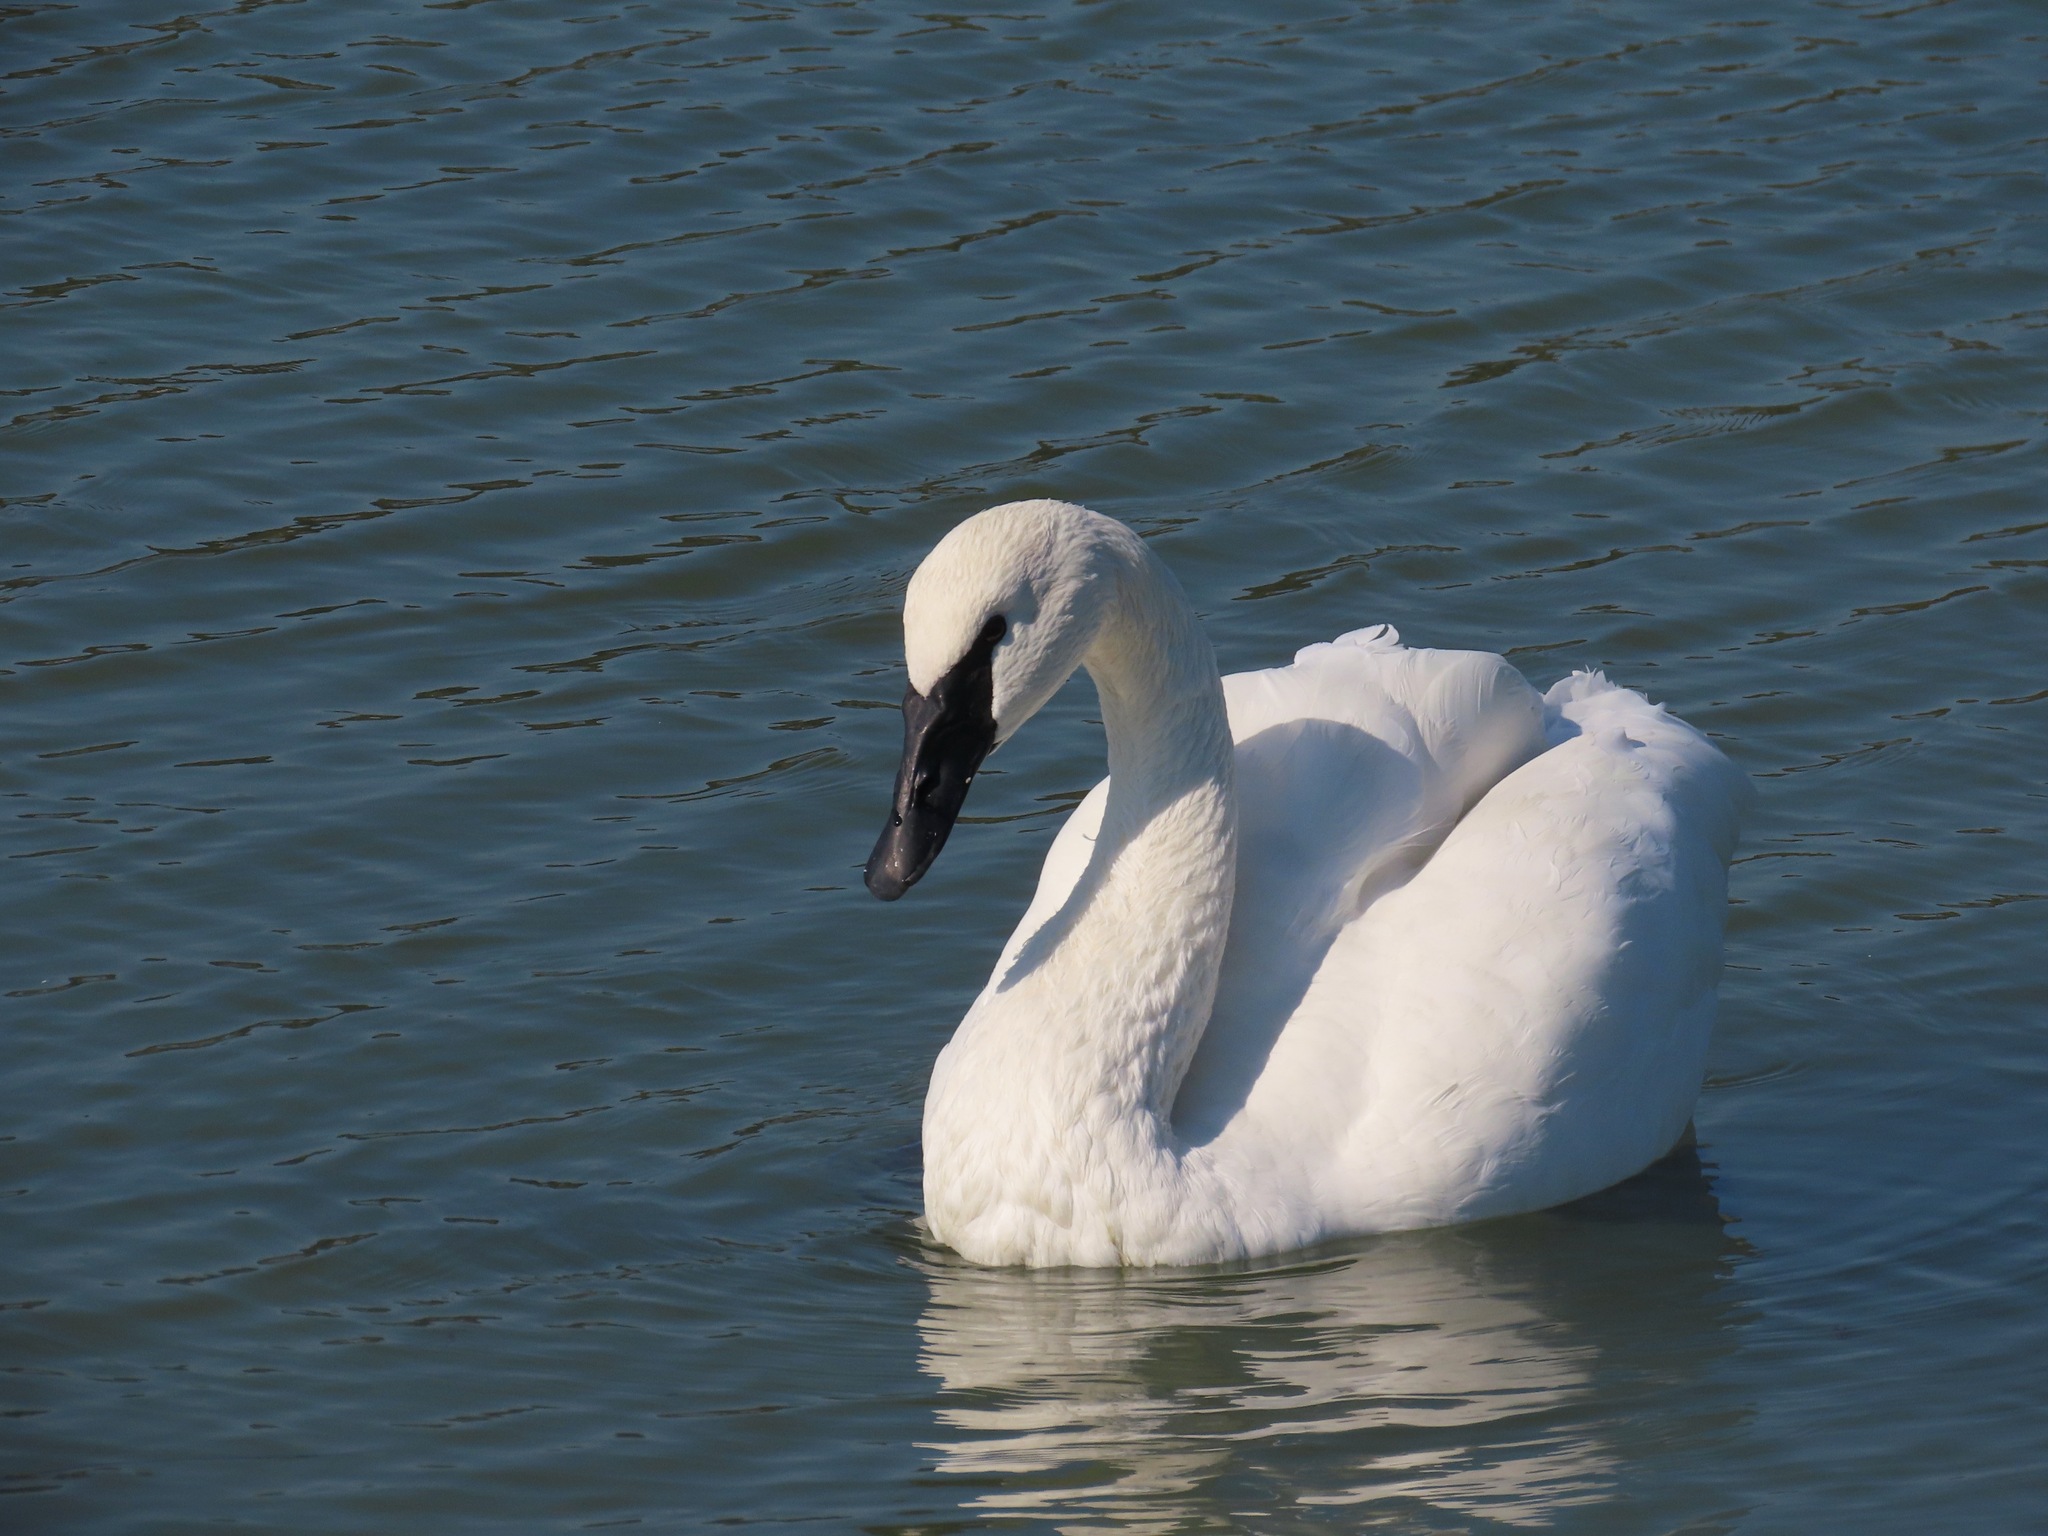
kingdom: Animalia
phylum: Chordata
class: Aves
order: Anseriformes
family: Anatidae
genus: Cygnus
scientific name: Cygnus buccinator
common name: Trumpeter swan
